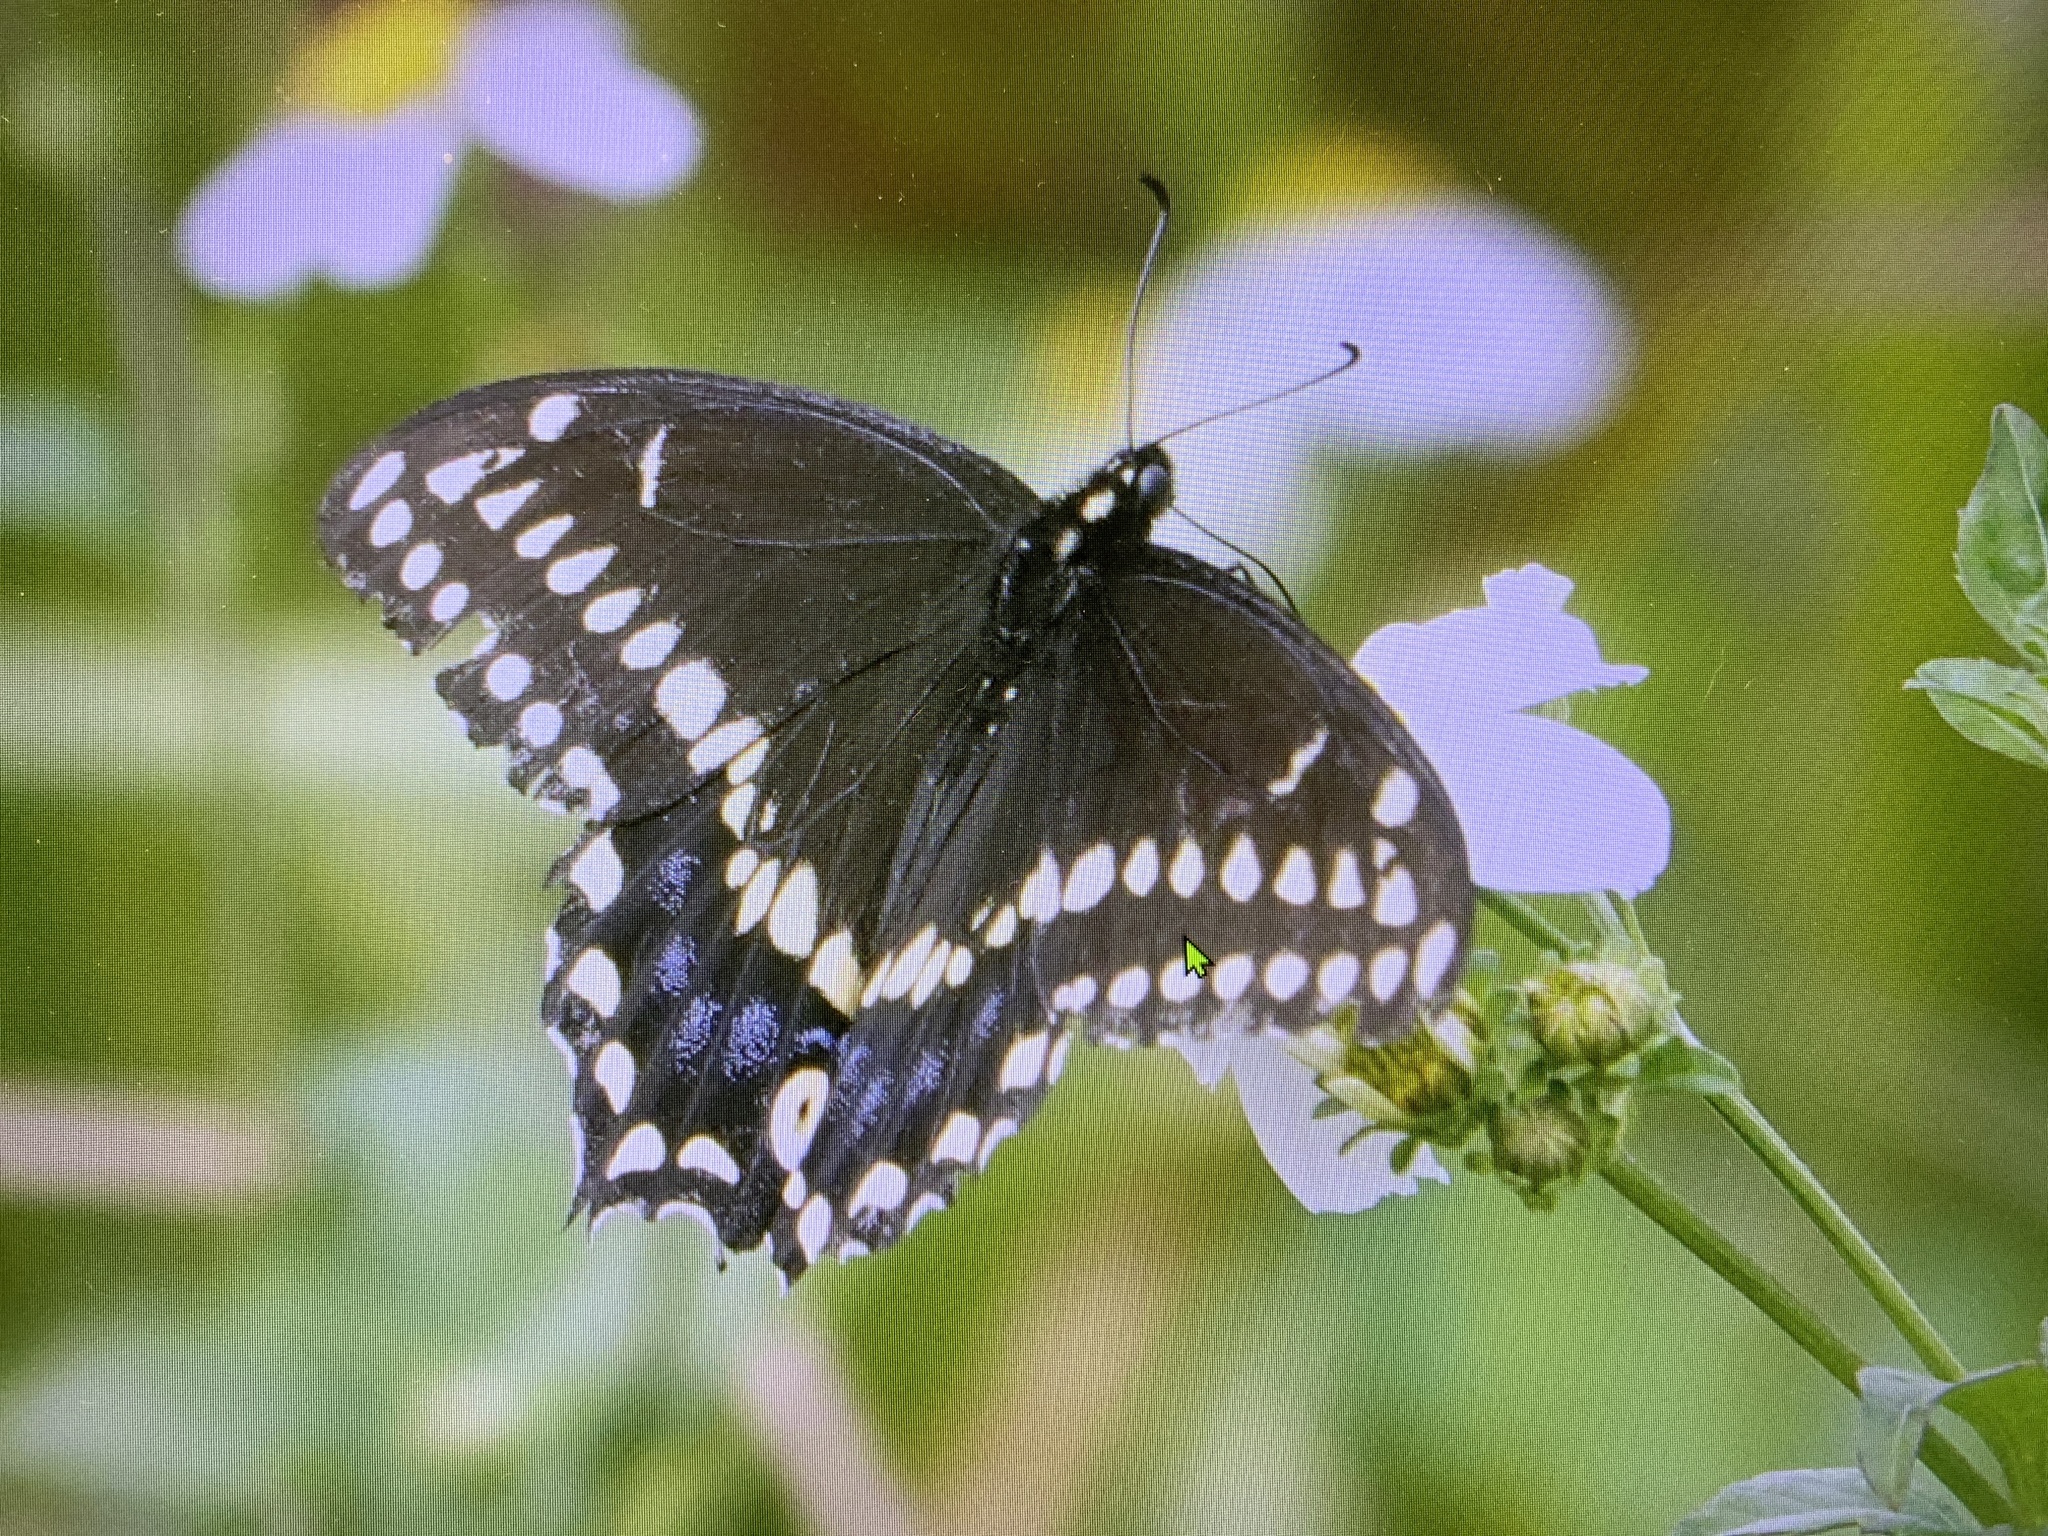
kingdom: Animalia
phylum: Arthropoda
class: Insecta
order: Lepidoptera
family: Papilionidae
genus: Papilio
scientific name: Papilio polyxenes
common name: Black swallowtail
